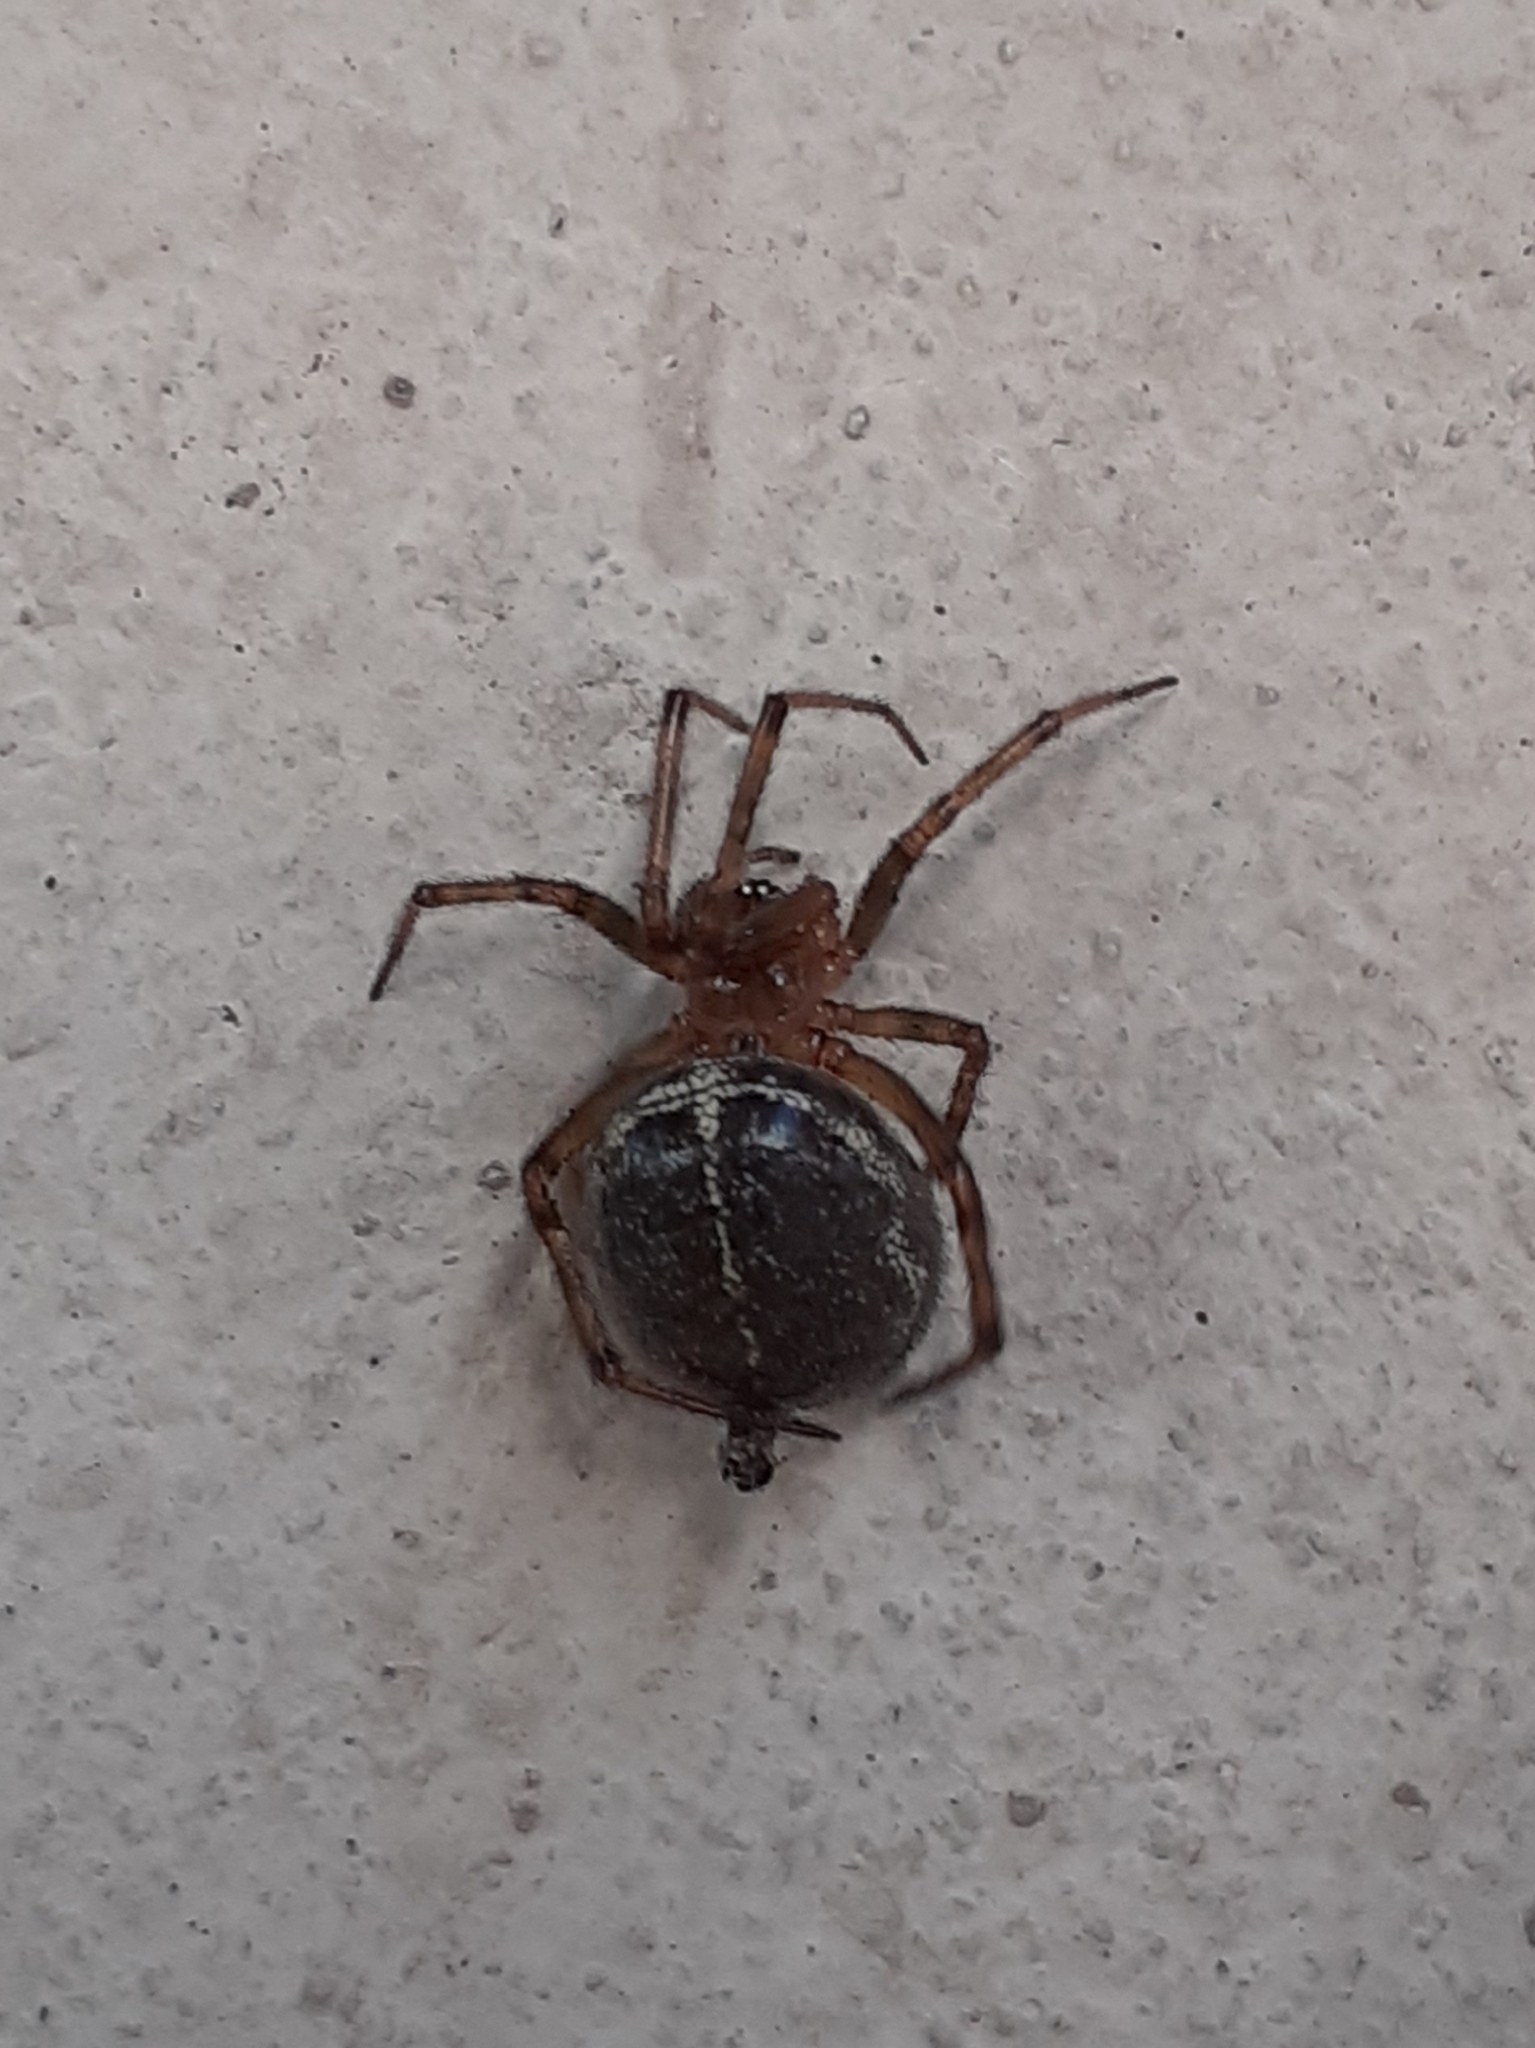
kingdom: Animalia
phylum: Arthropoda
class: Arachnida
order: Araneae
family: Theridiidae
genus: Steatoda
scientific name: Steatoda castanea
